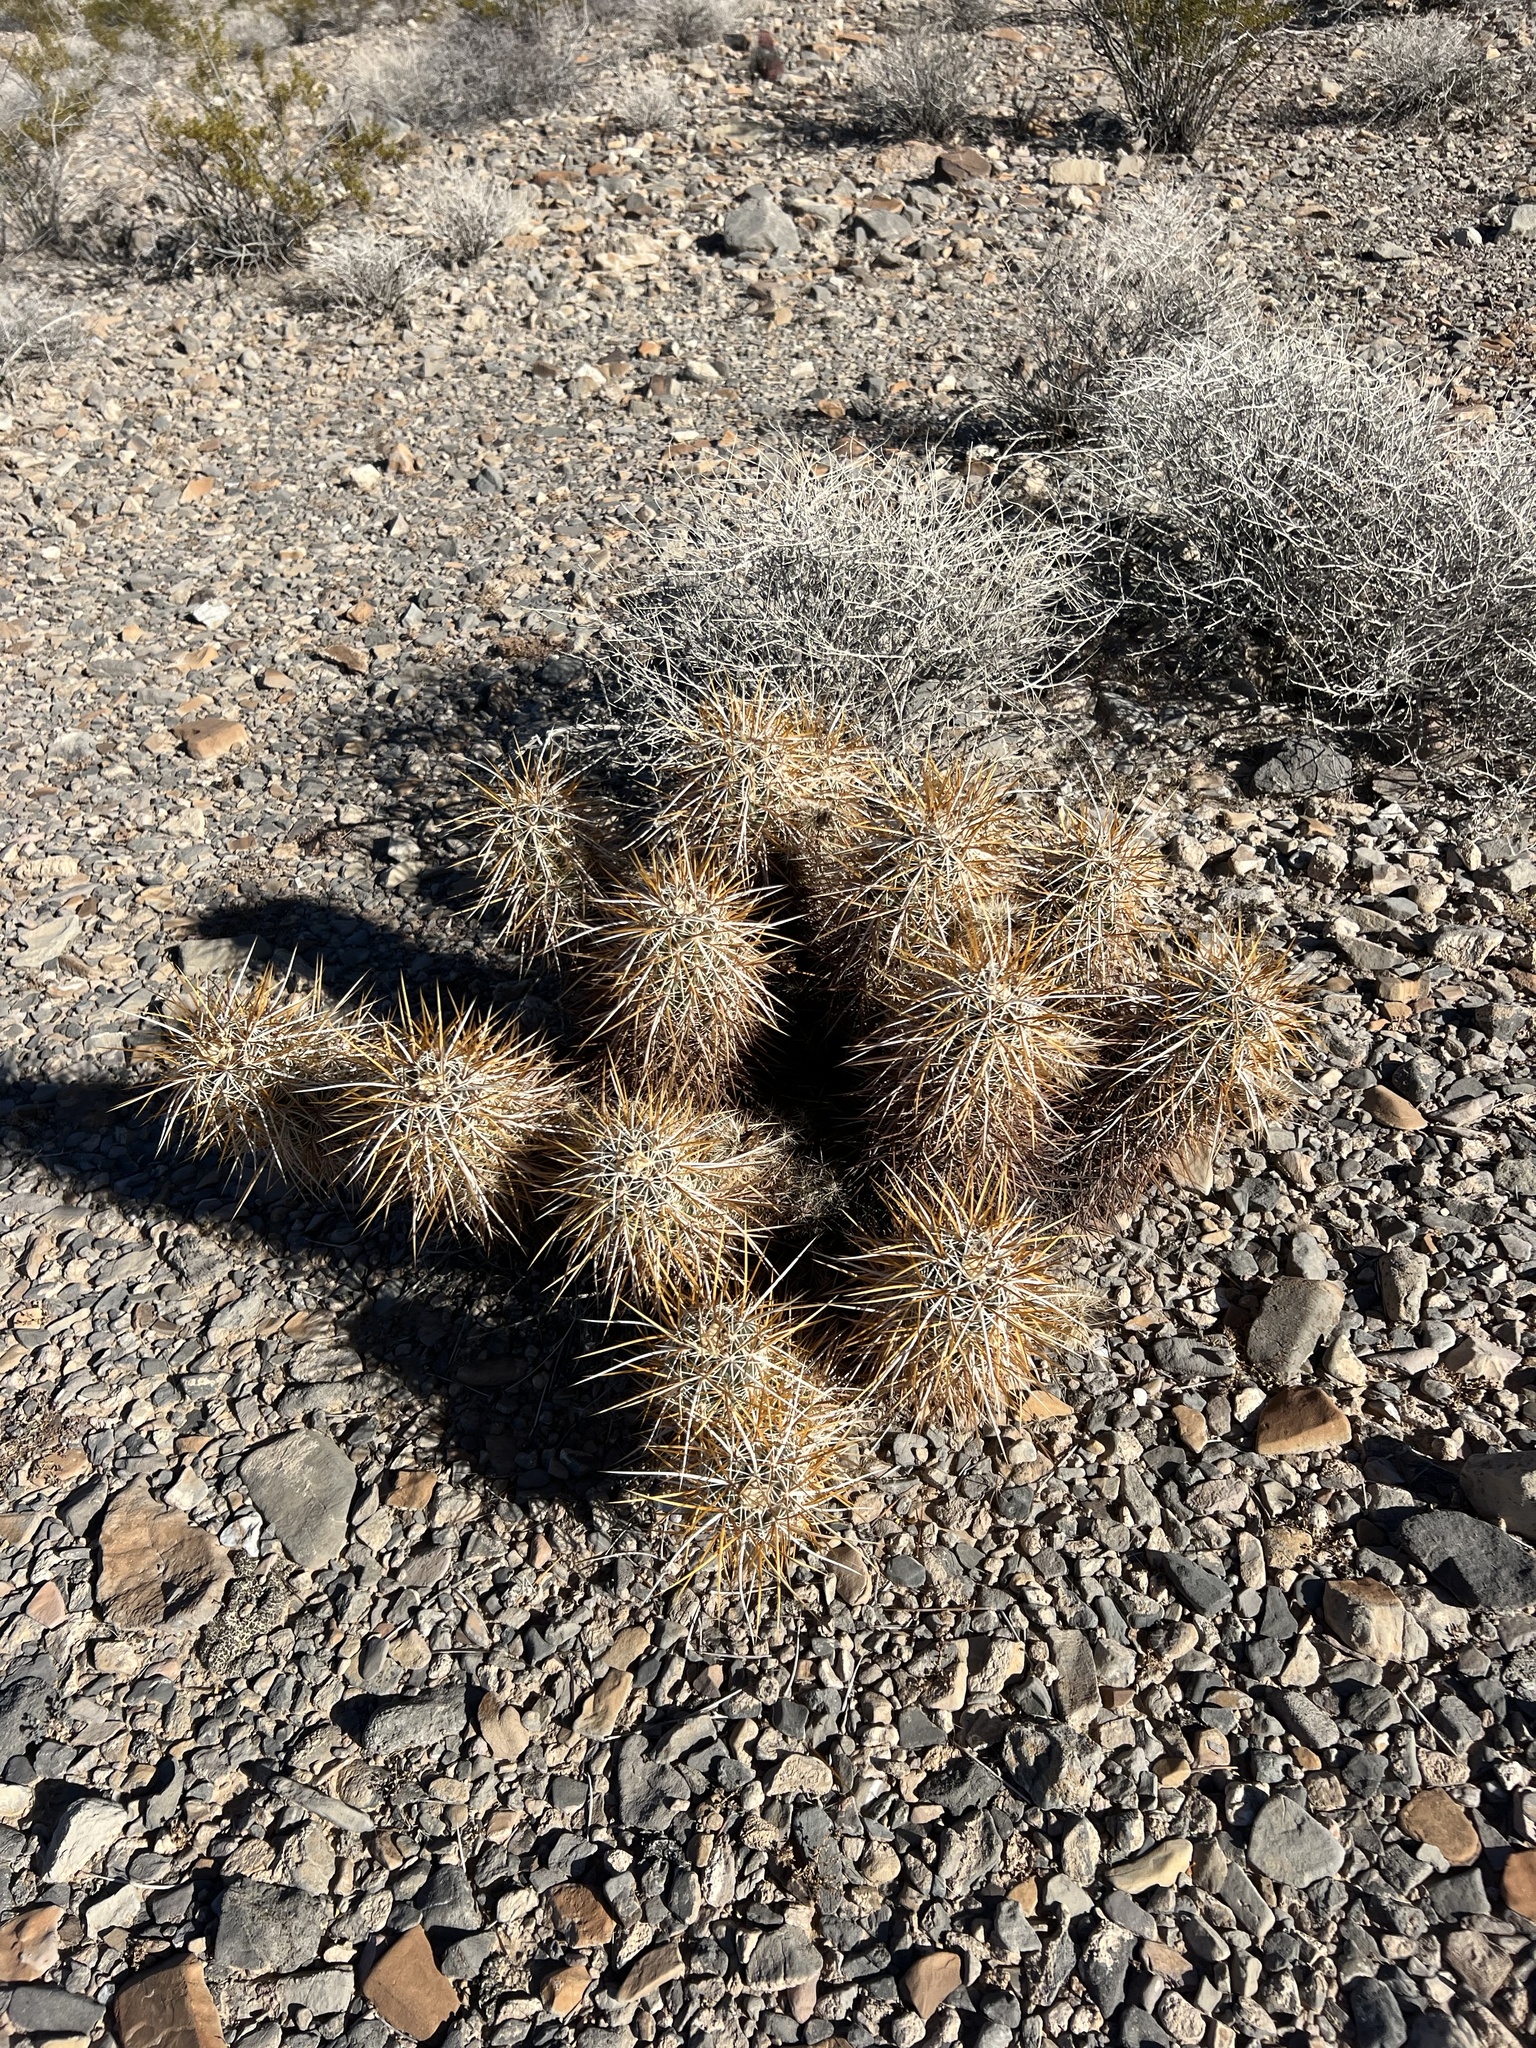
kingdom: Plantae
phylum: Tracheophyta
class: Magnoliopsida
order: Caryophyllales
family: Cactaceae
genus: Echinocereus
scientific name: Echinocereus engelmannii
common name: Engelmann's hedgehog cactus
